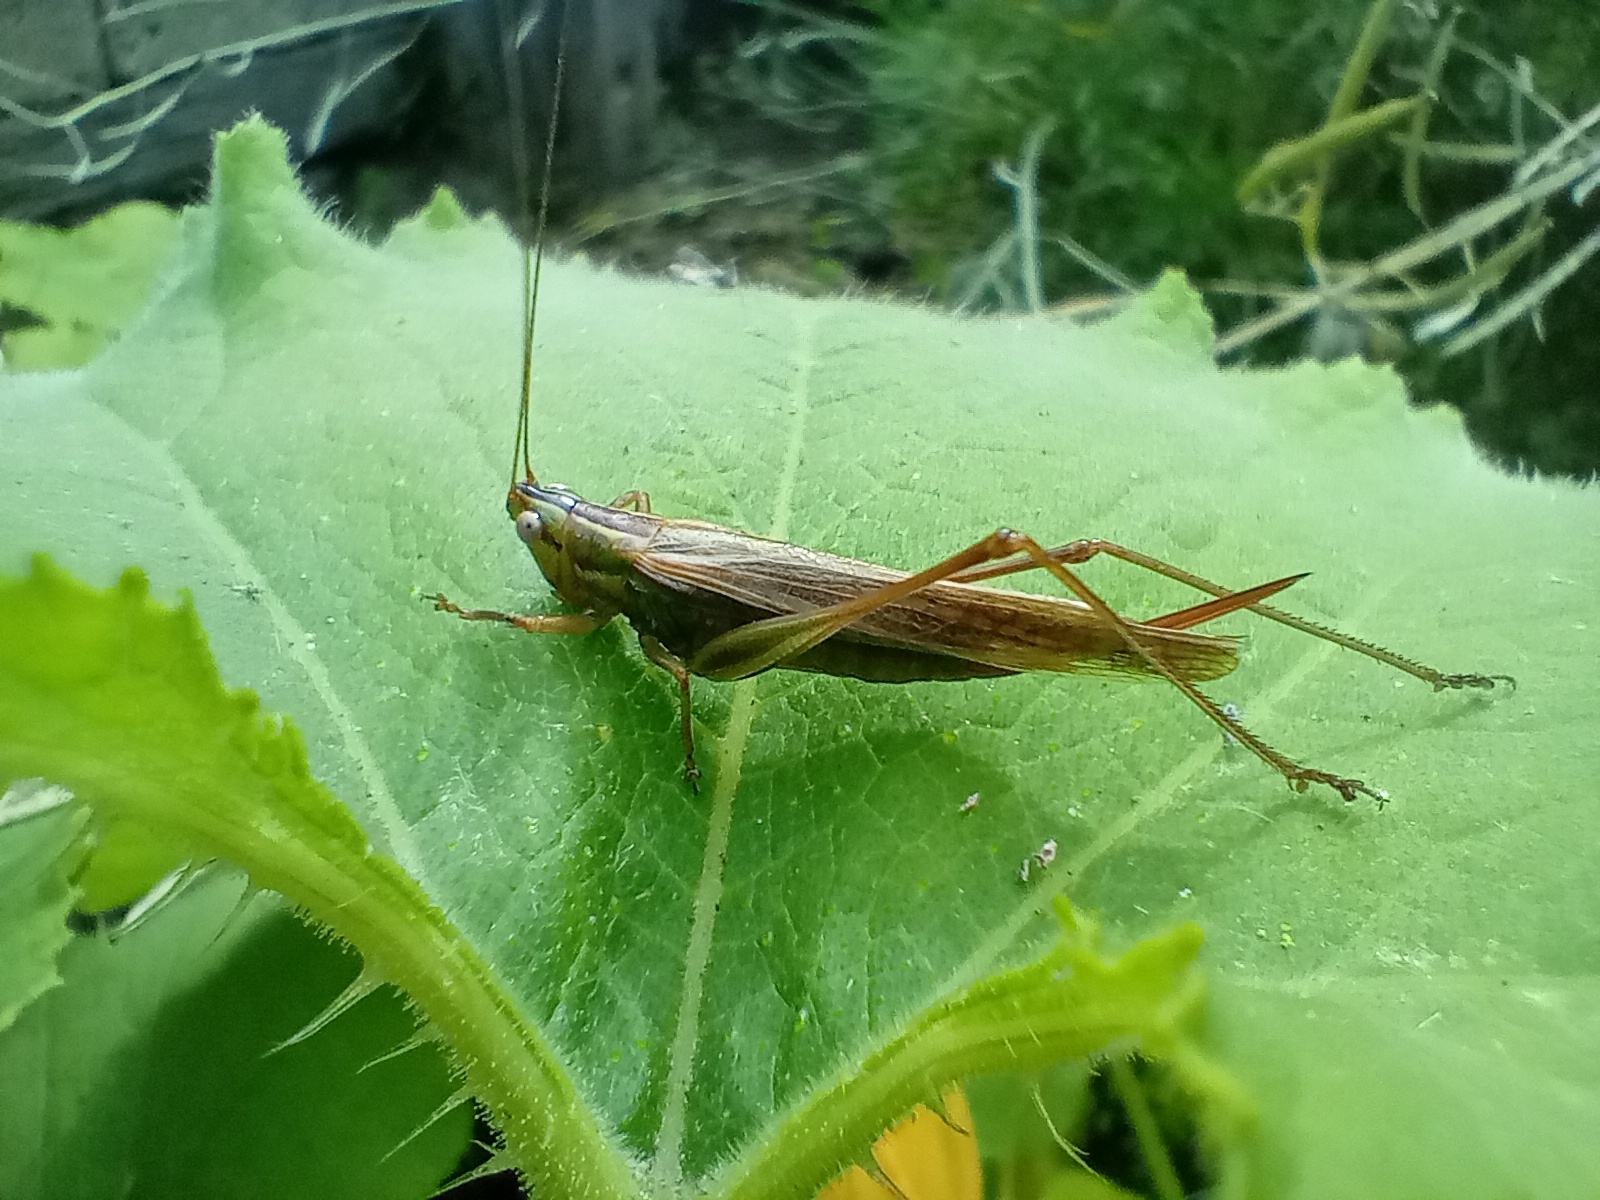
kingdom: Animalia
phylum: Arthropoda
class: Insecta
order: Orthoptera
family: Tettigoniidae
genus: Conocephalus
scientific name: Conocephalus bilineatus
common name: Small meadow katydid
